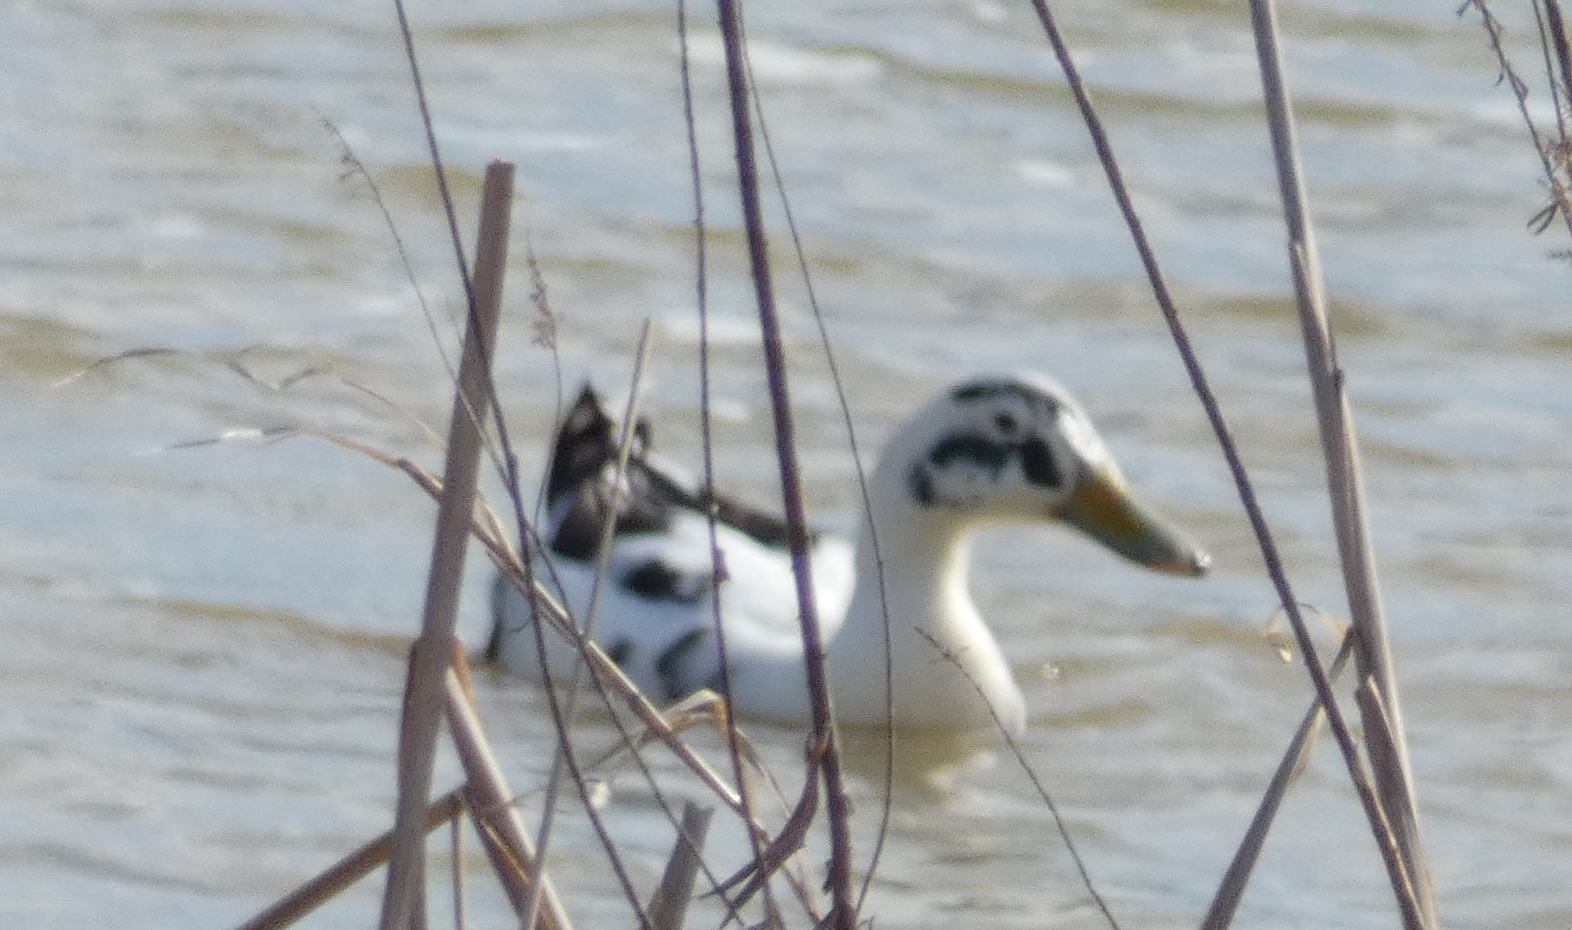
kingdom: Animalia
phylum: Chordata
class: Aves
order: Anseriformes
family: Anatidae
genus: Anas
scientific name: Anas platyrhynchos
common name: Mallard
